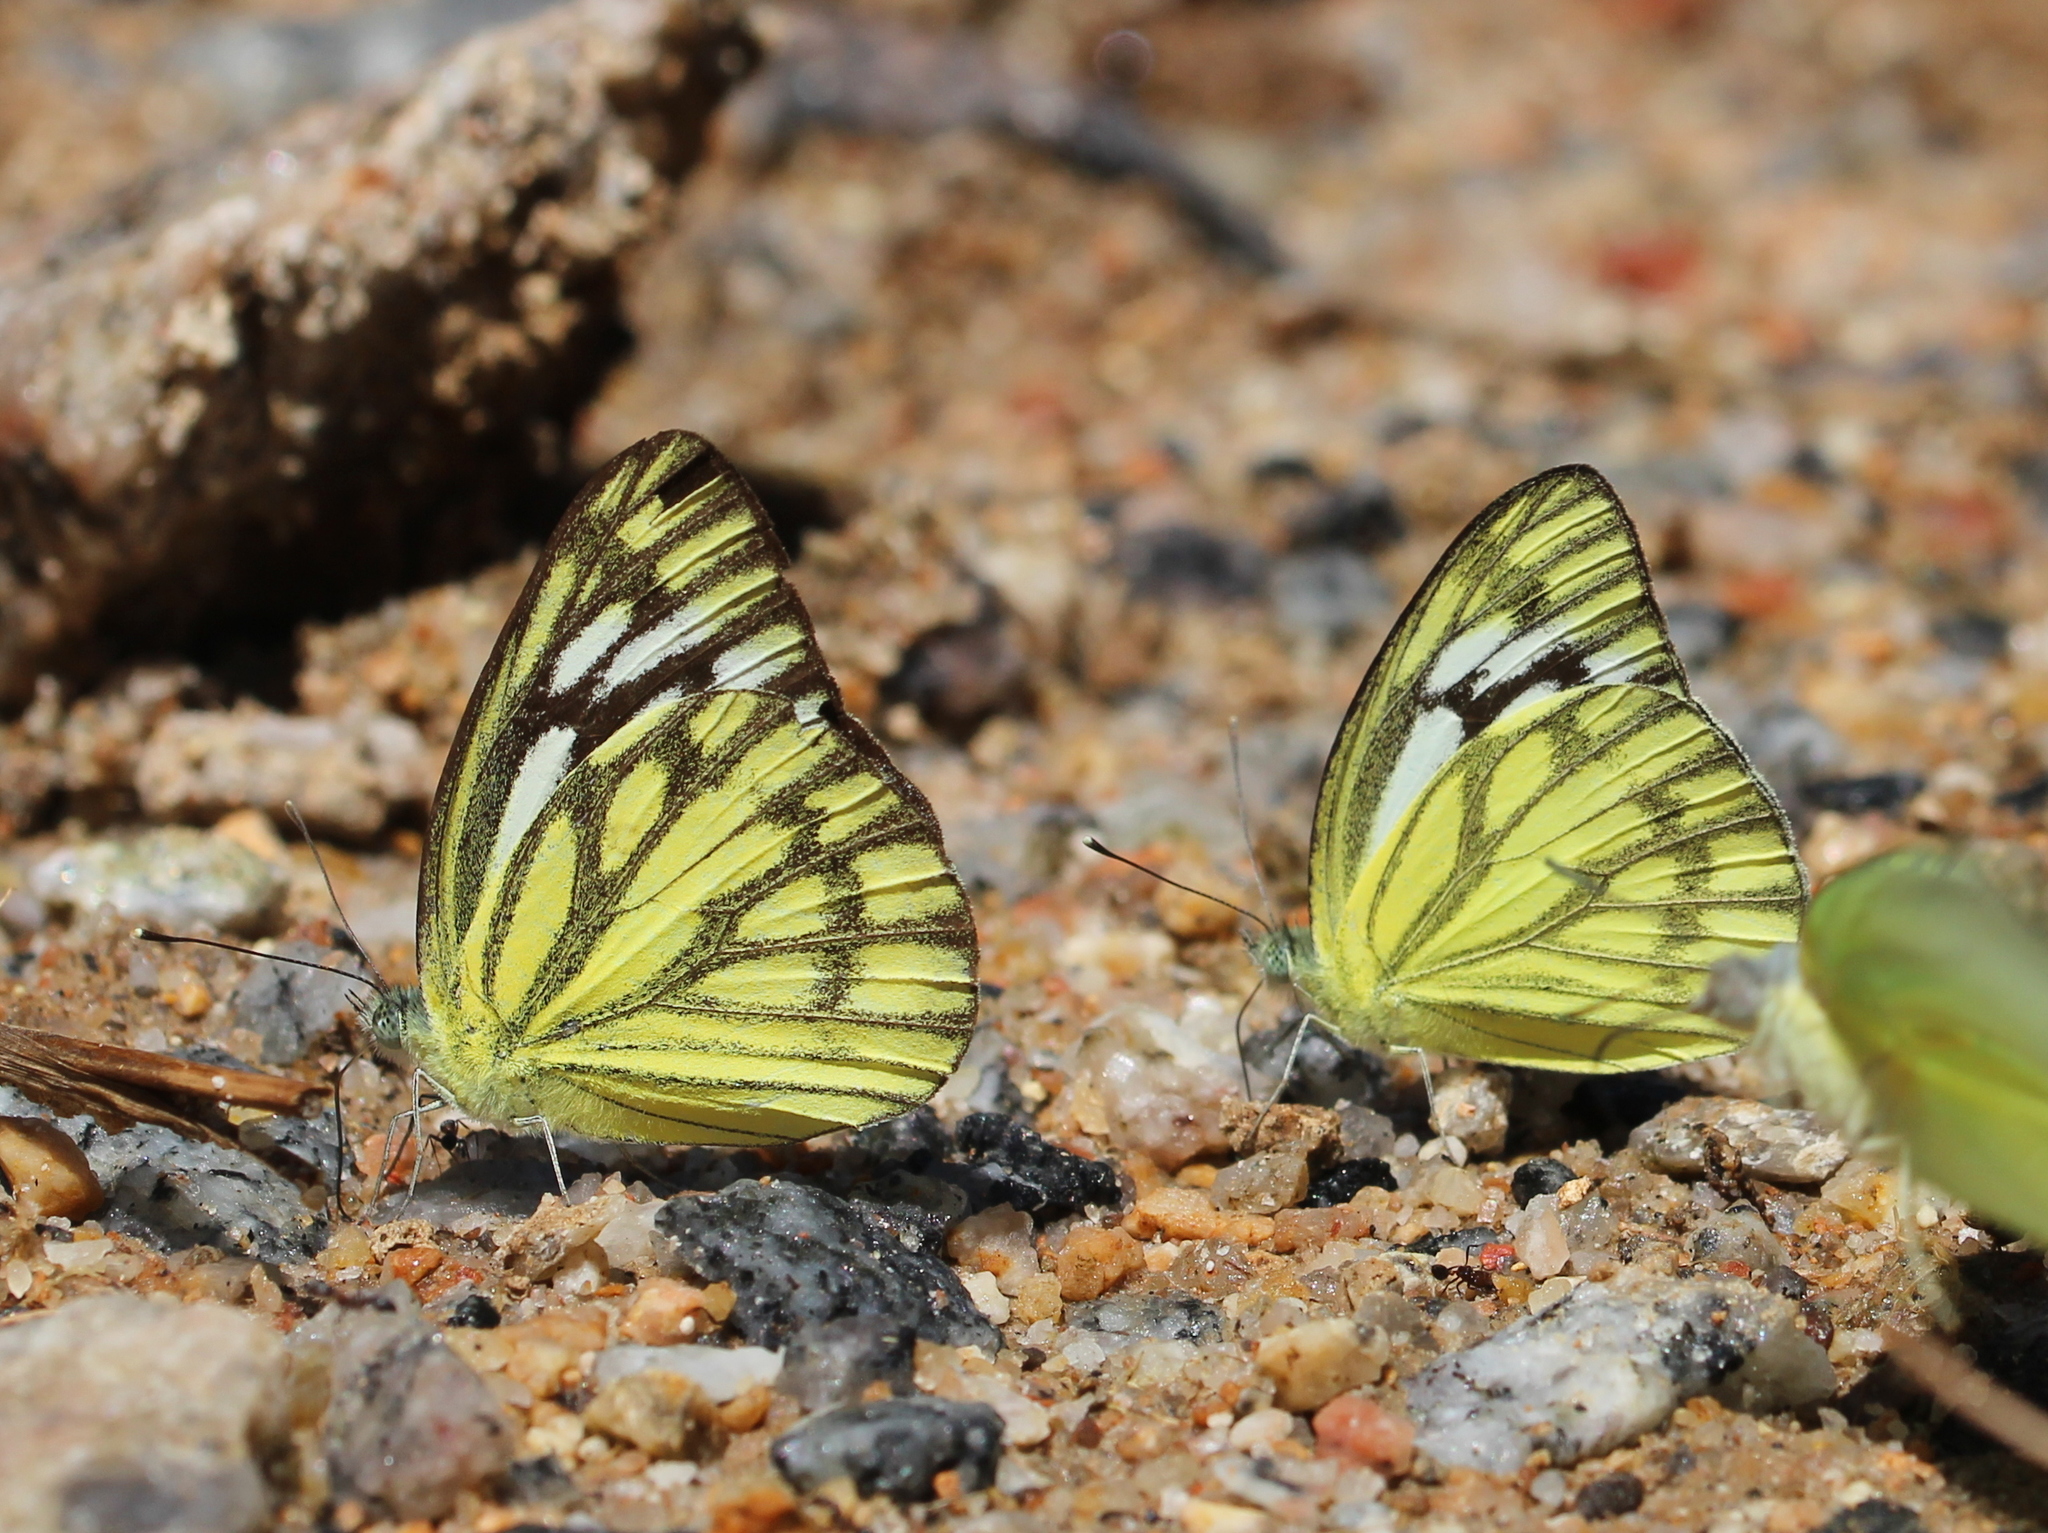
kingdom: Animalia
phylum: Arthropoda
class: Insecta
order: Lepidoptera
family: Pieridae
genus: Cepora
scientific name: Cepora nerissa
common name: Common gull
